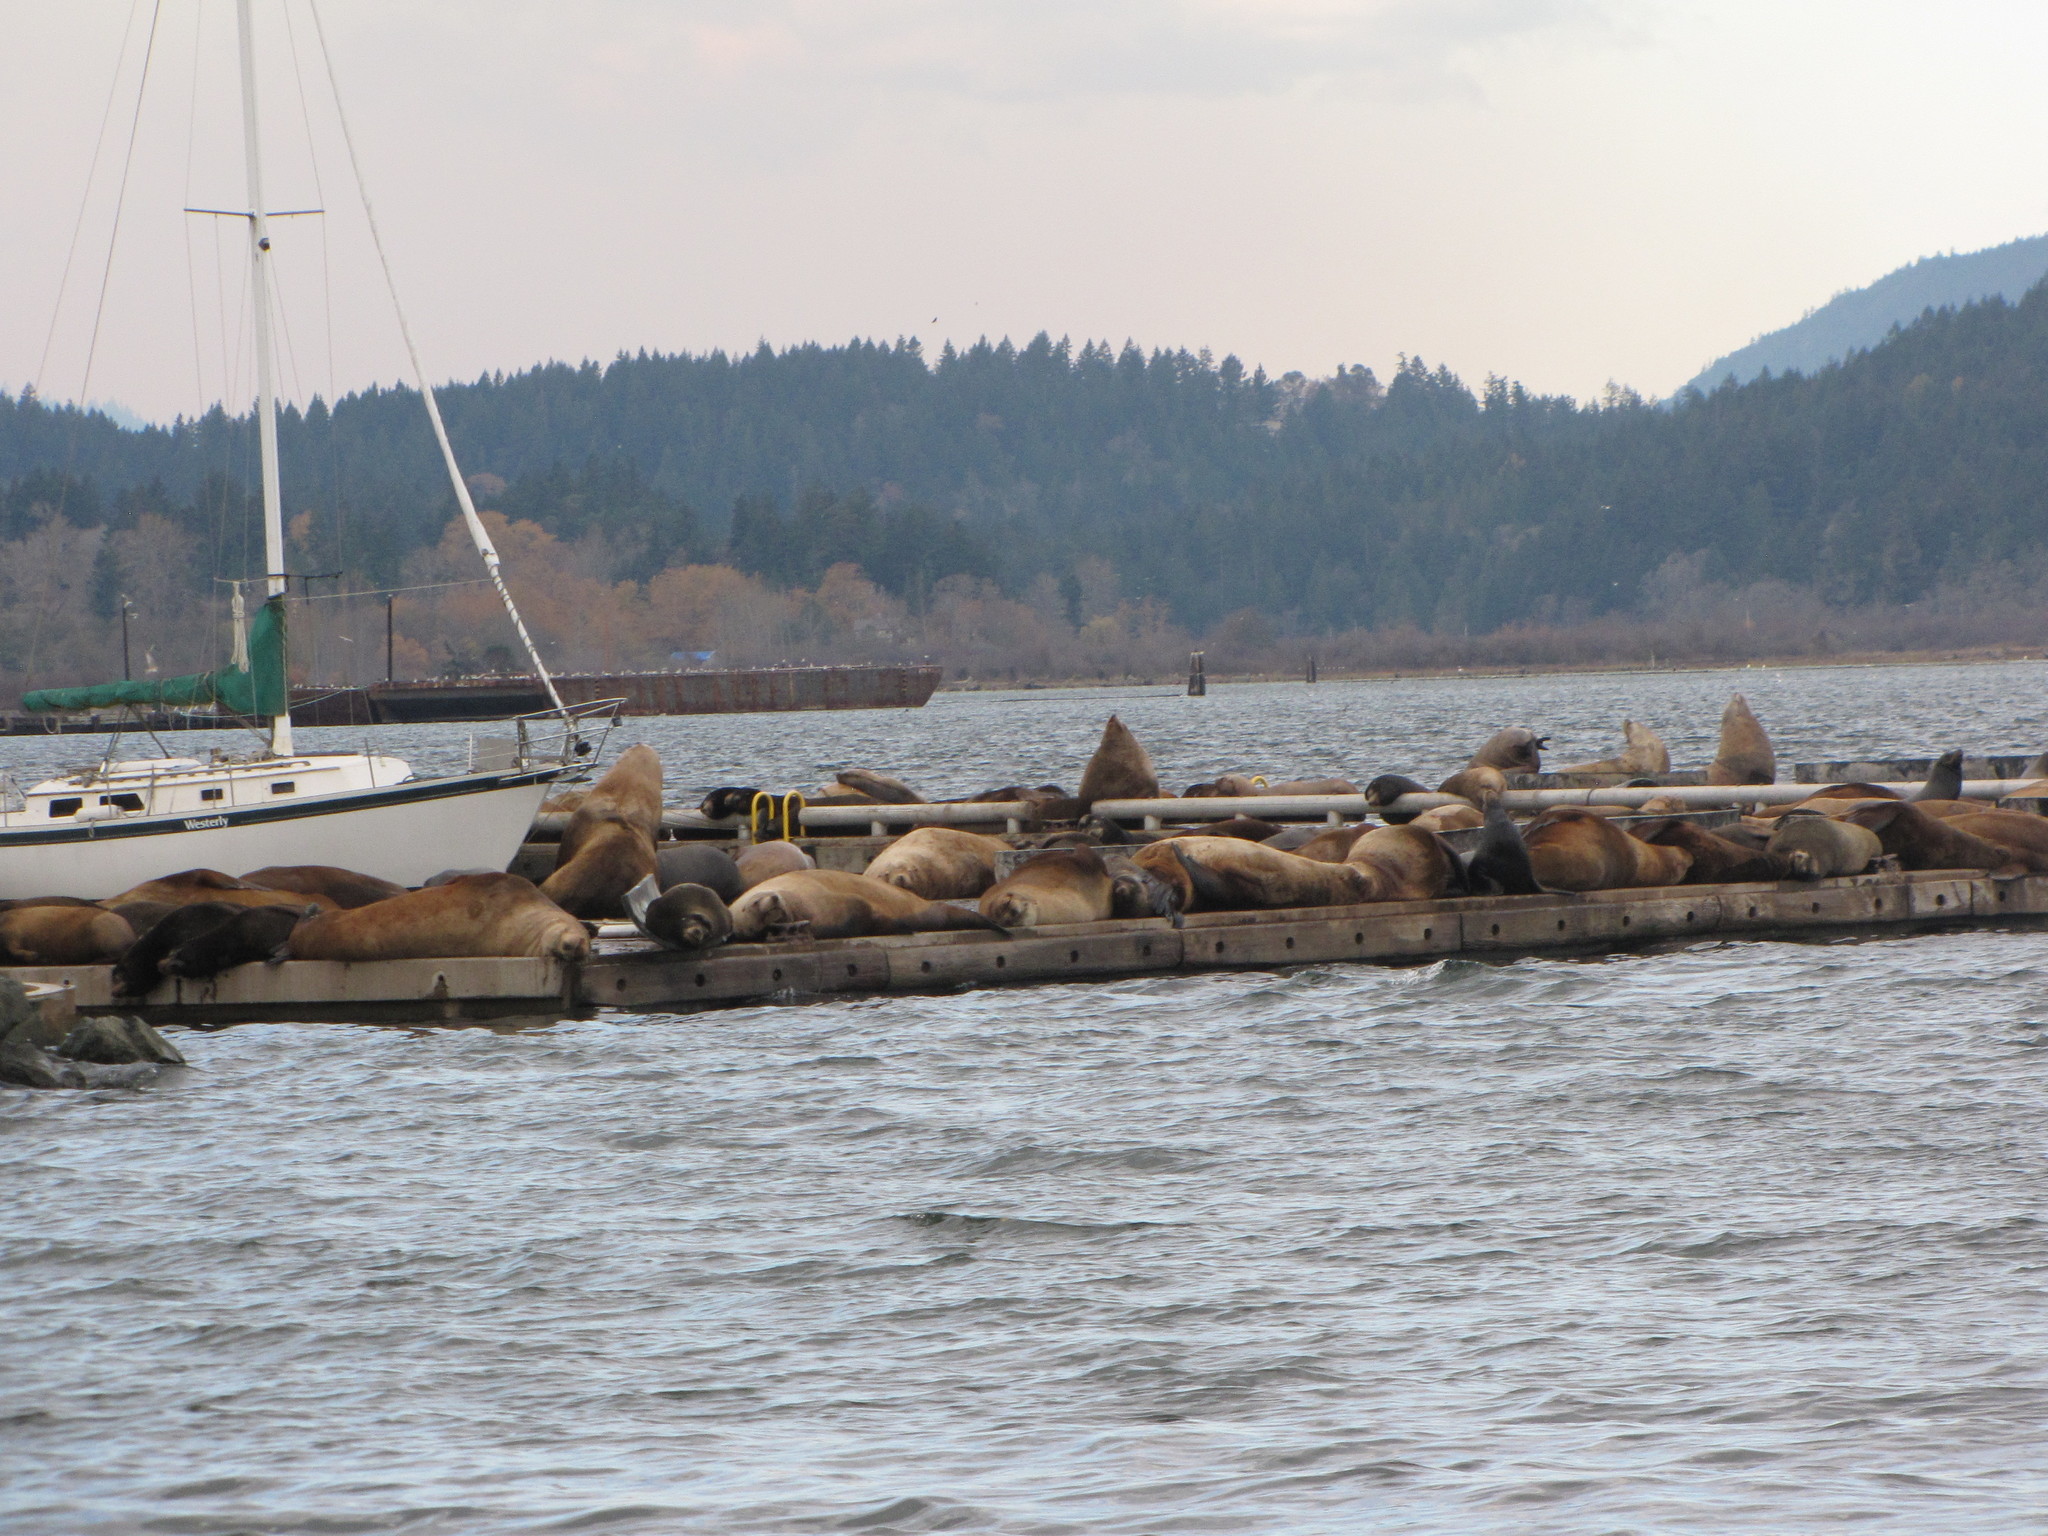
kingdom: Animalia
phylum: Chordata
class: Mammalia
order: Carnivora
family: Otariidae
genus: Eumetopias
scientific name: Eumetopias jubatus
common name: Steller sea lion
